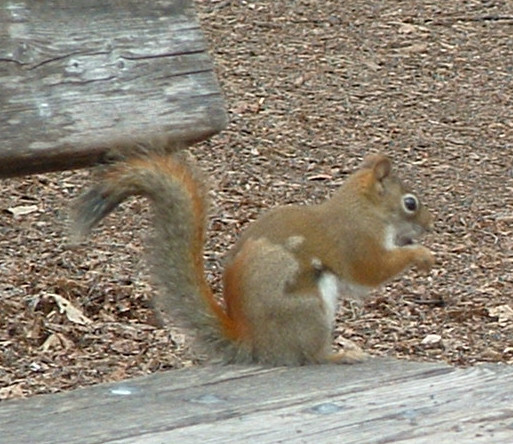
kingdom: Animalia
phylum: Chordata
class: Mammalia
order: Rodentia
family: Sciuridae
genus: Tamiasciurus
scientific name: Tamiasciurus hudsonicus
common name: Red squirrel
